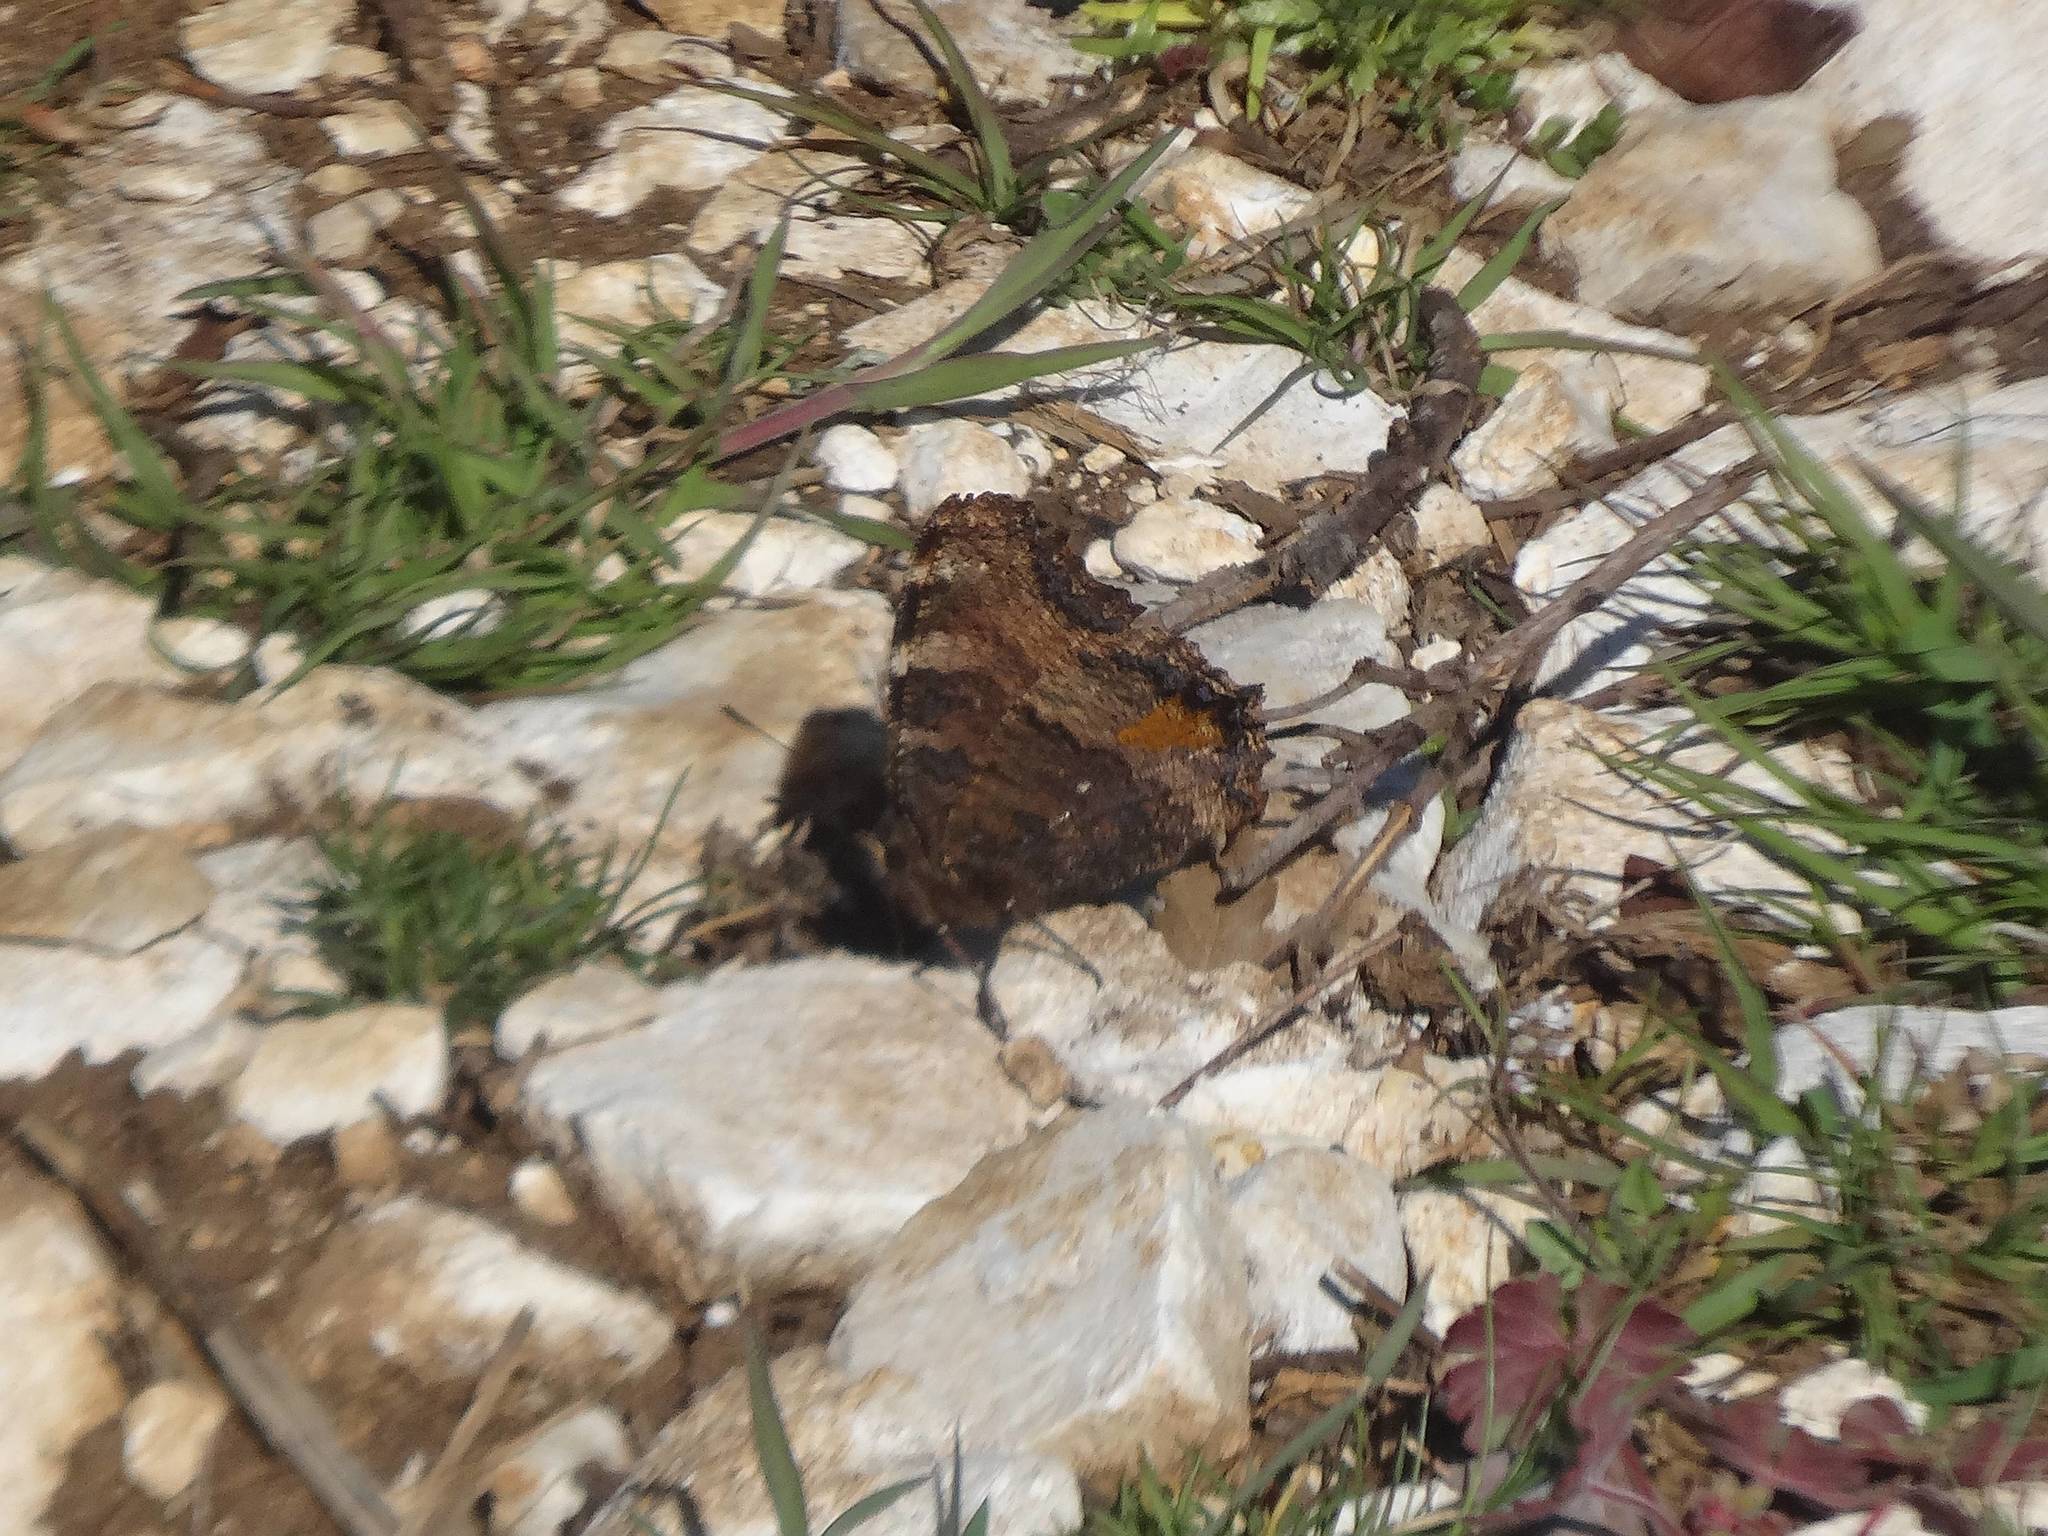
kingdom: Animalia
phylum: Arthropoda
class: Insecta
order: Lepidoptera
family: Nymphalidae
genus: Nymphalis
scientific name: Nymphalis polychloros
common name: Large tortoiseshell
